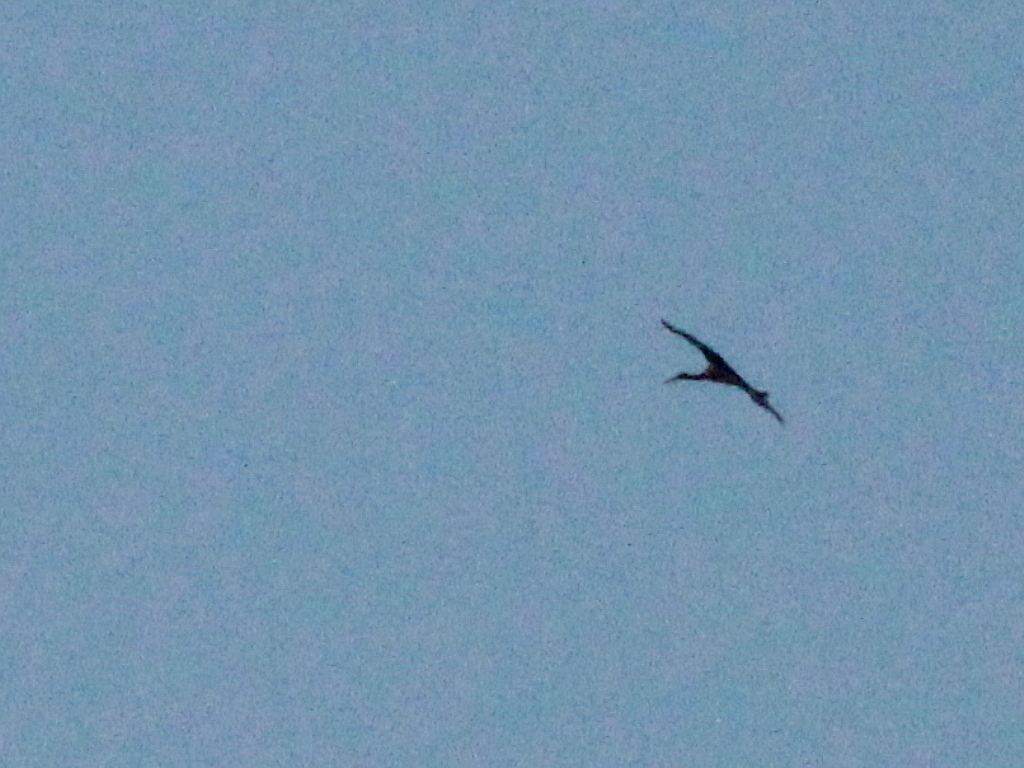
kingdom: Animalia
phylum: Chordata
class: Aves
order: Ciconiiformes
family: Ciconiidae
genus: Ciconia
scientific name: Ciconia nigra
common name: Black stork
